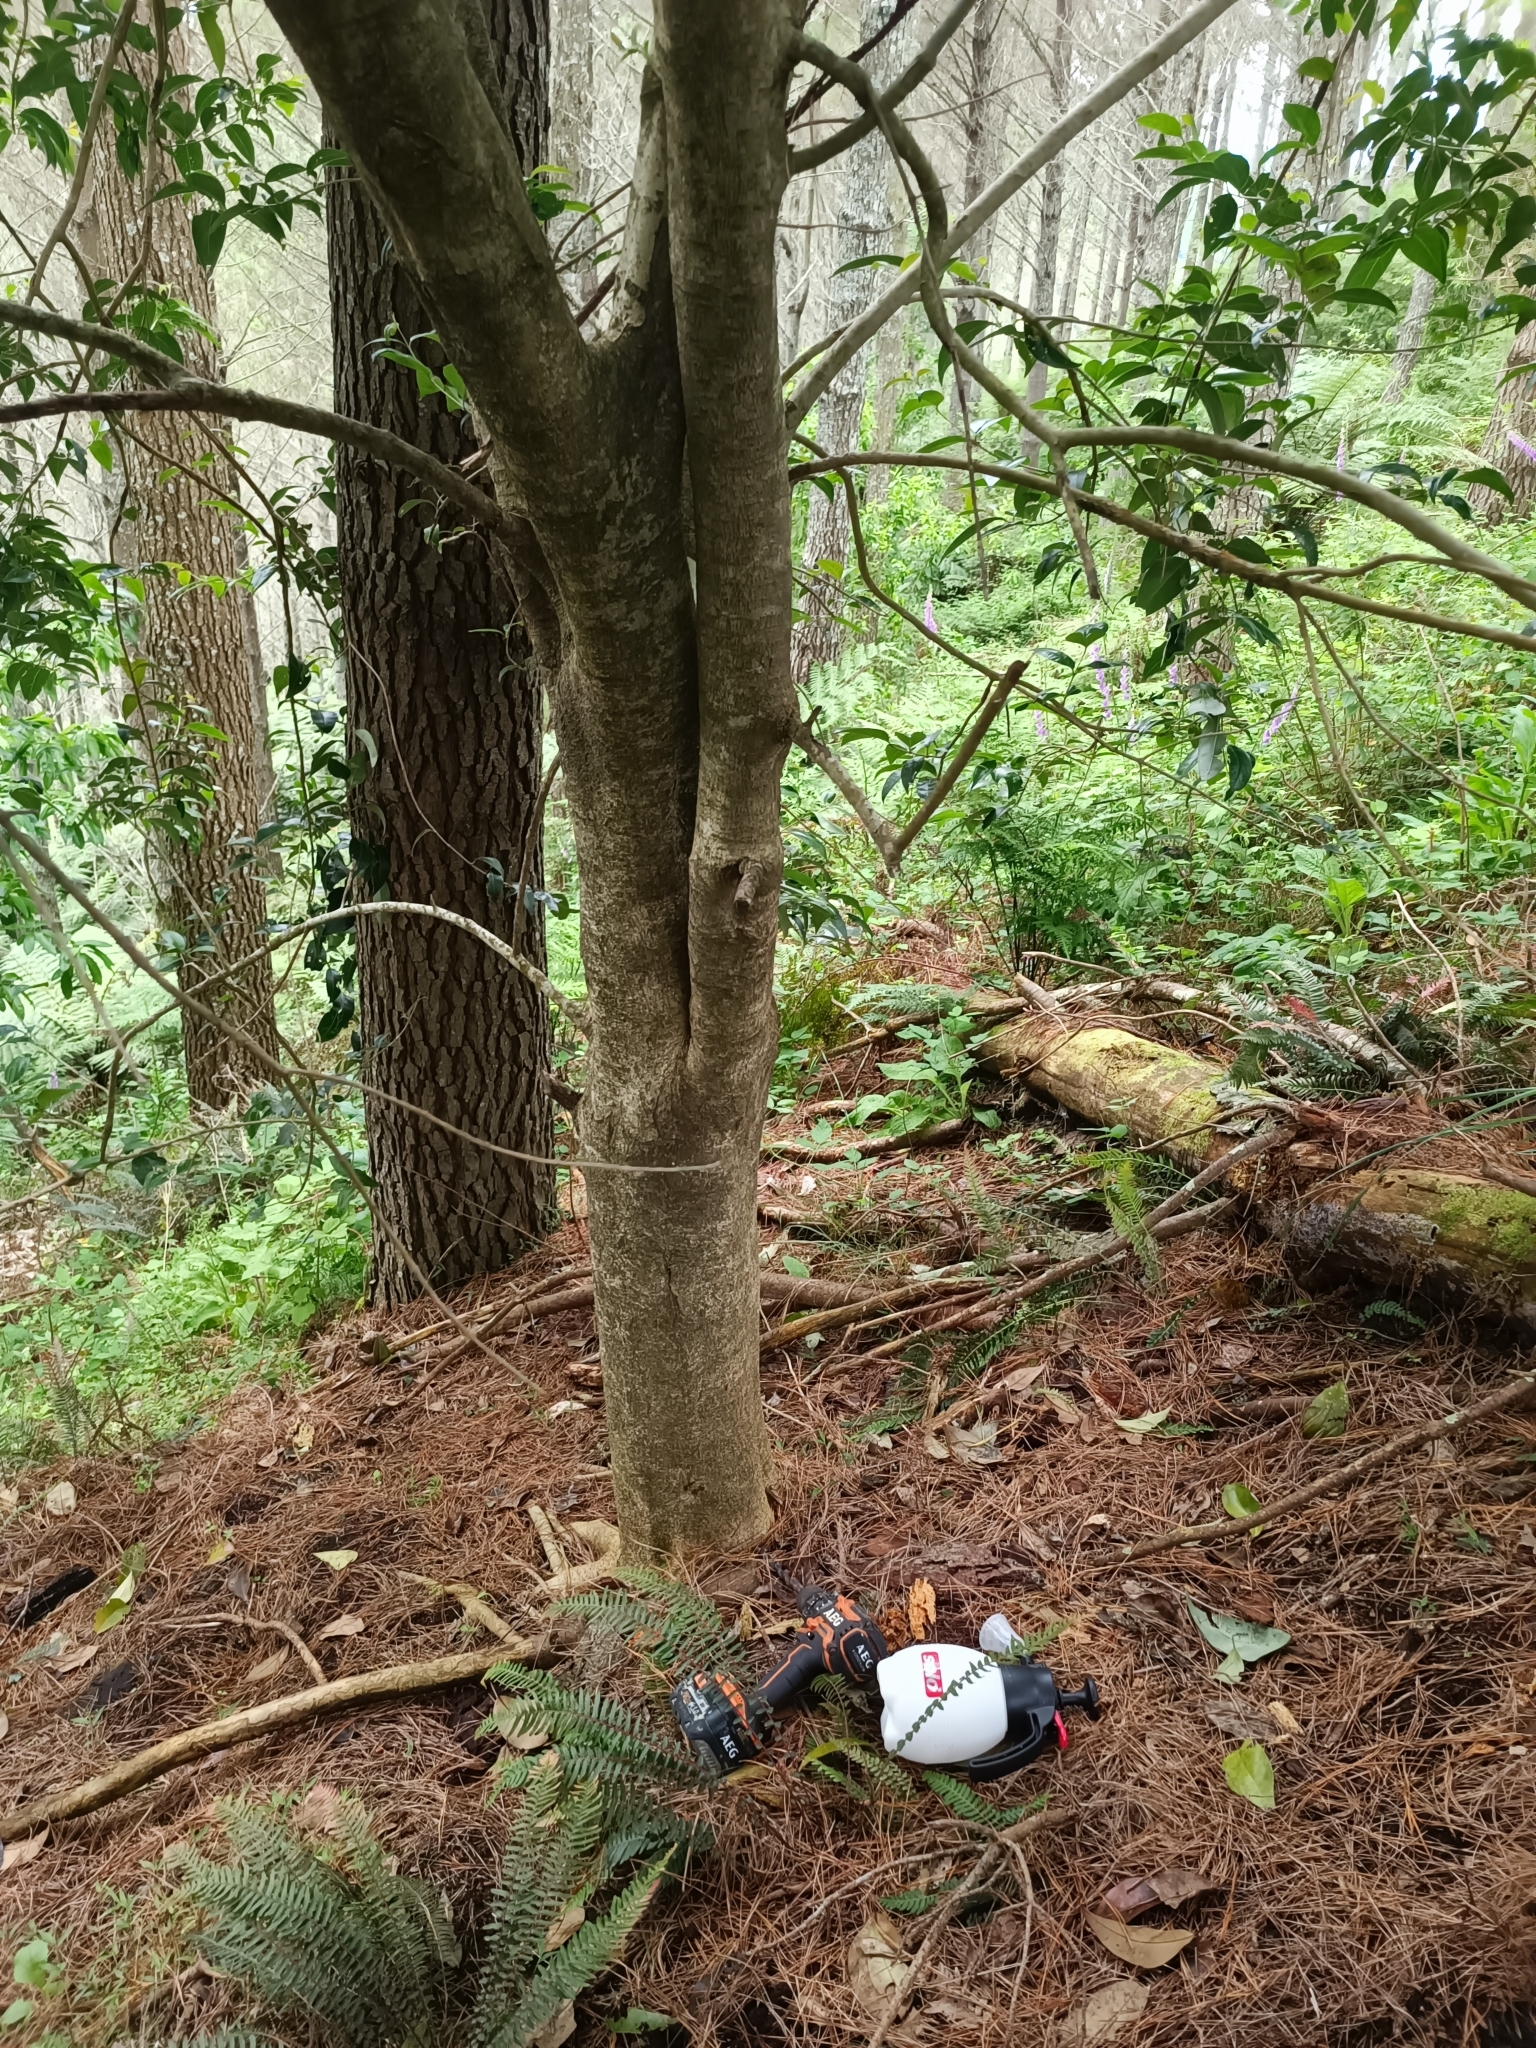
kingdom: Plantae
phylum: Tracheophyta
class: Magnoliopsida
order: Lamiales
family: Oleaceae
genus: Ligustrum
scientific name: Ligustrum lucidum
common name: Glossy privet
